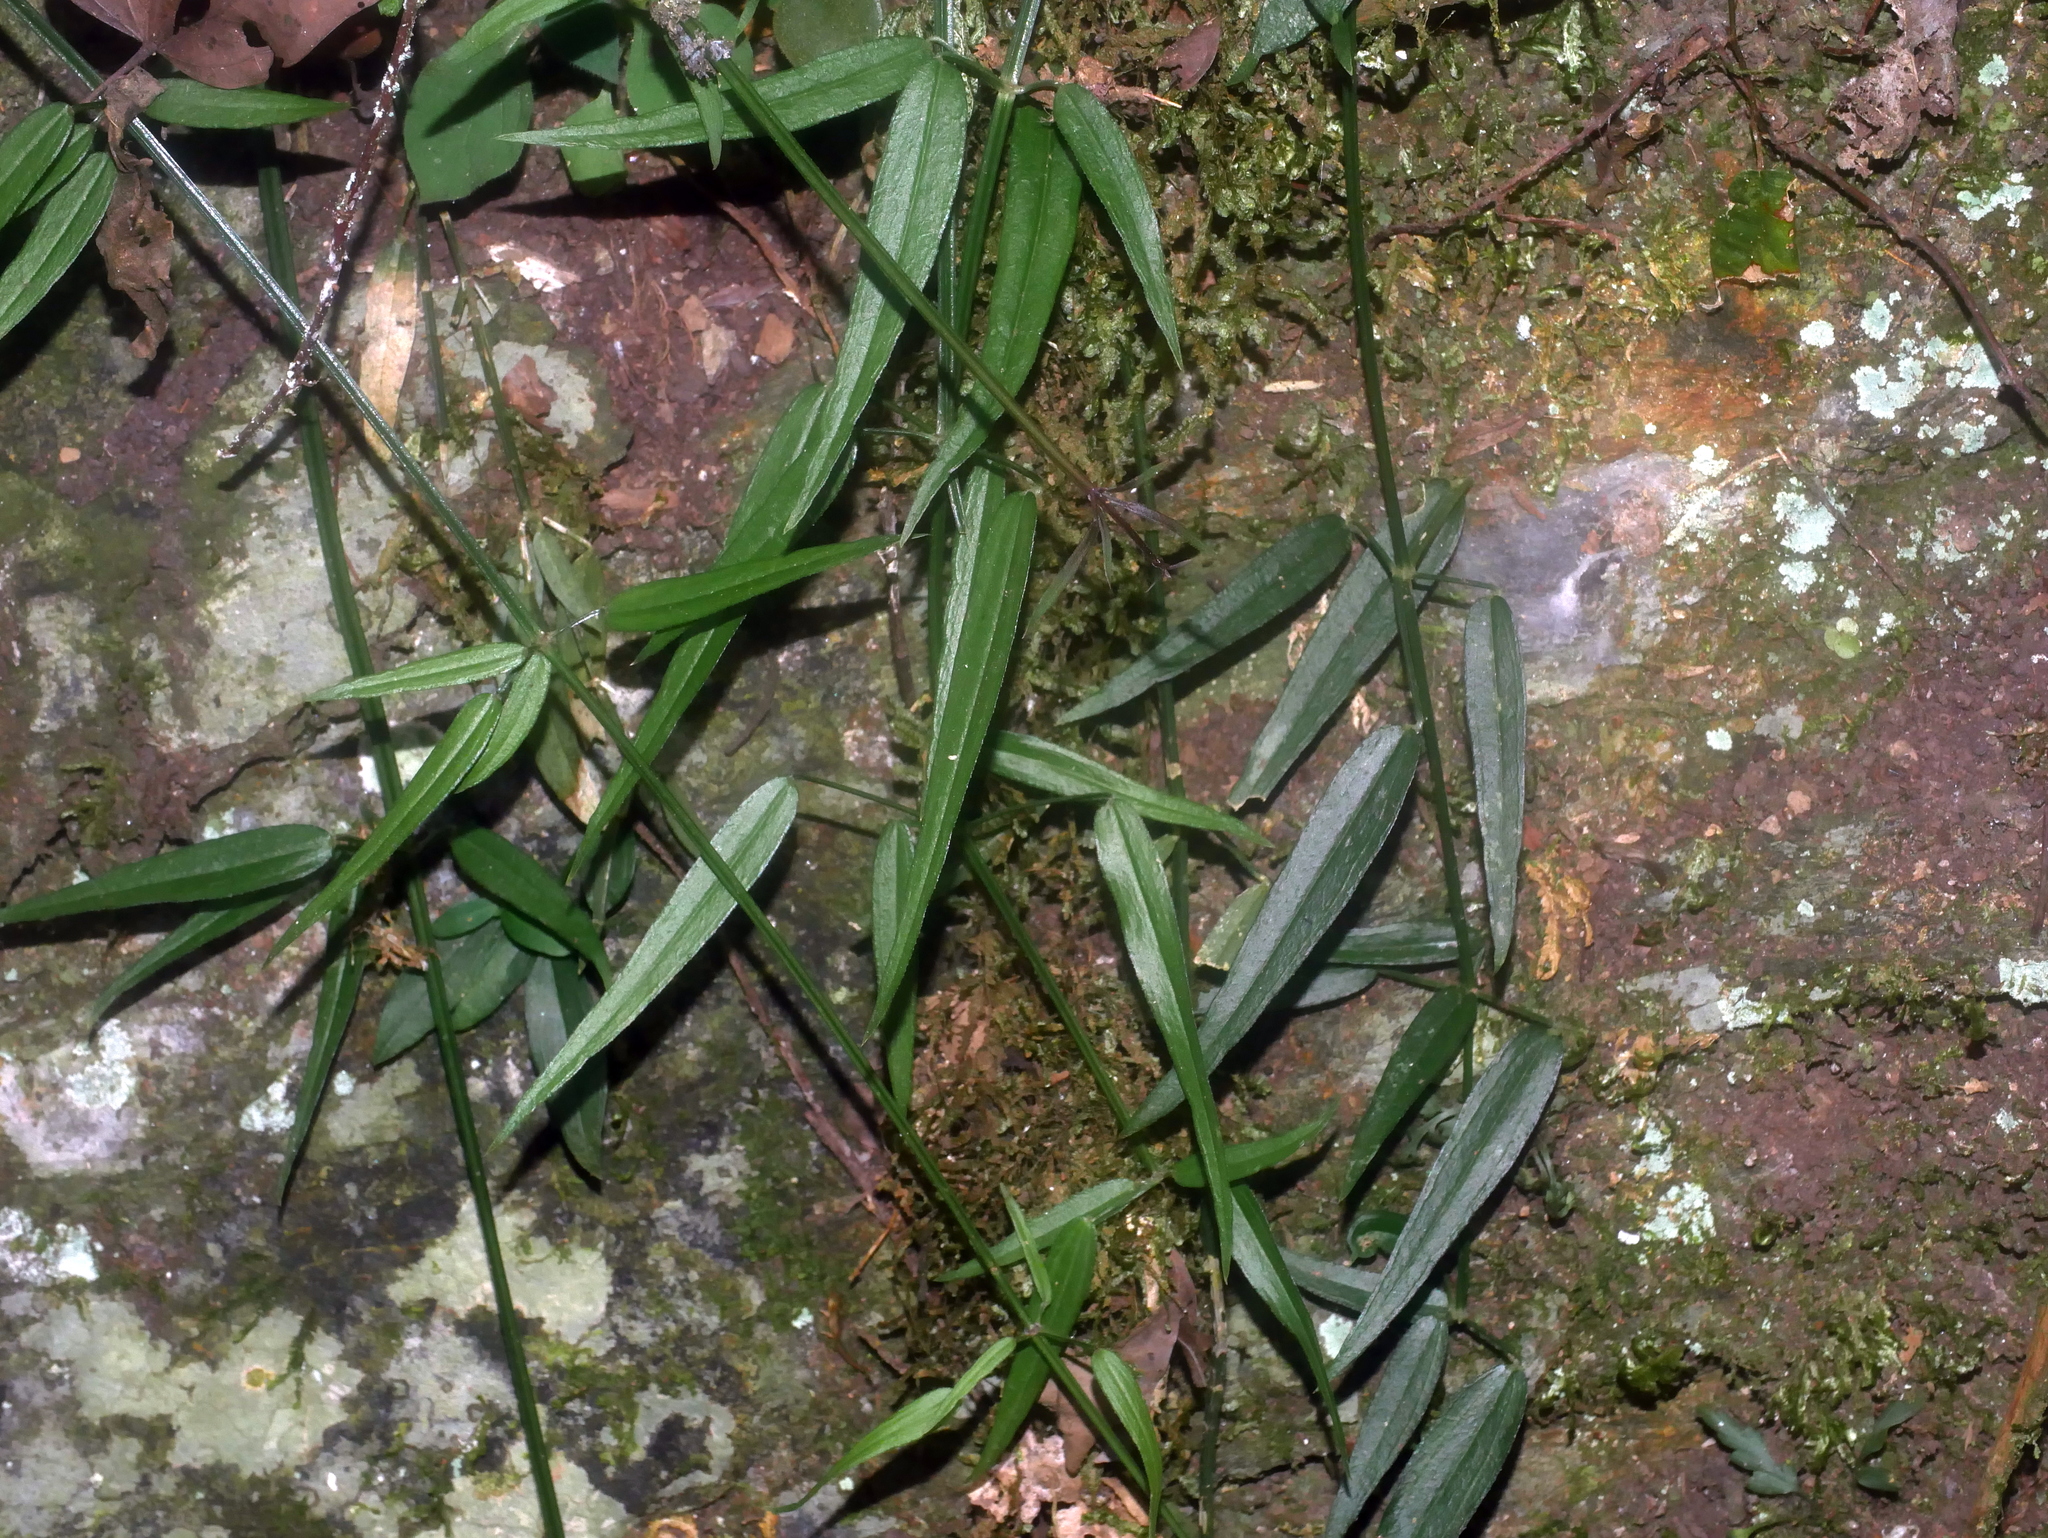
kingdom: Plantae
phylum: Tracheophyta
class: Magnoliopsida
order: Gentianales
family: Rubiaceae
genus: Rubia
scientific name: Rubia alata
